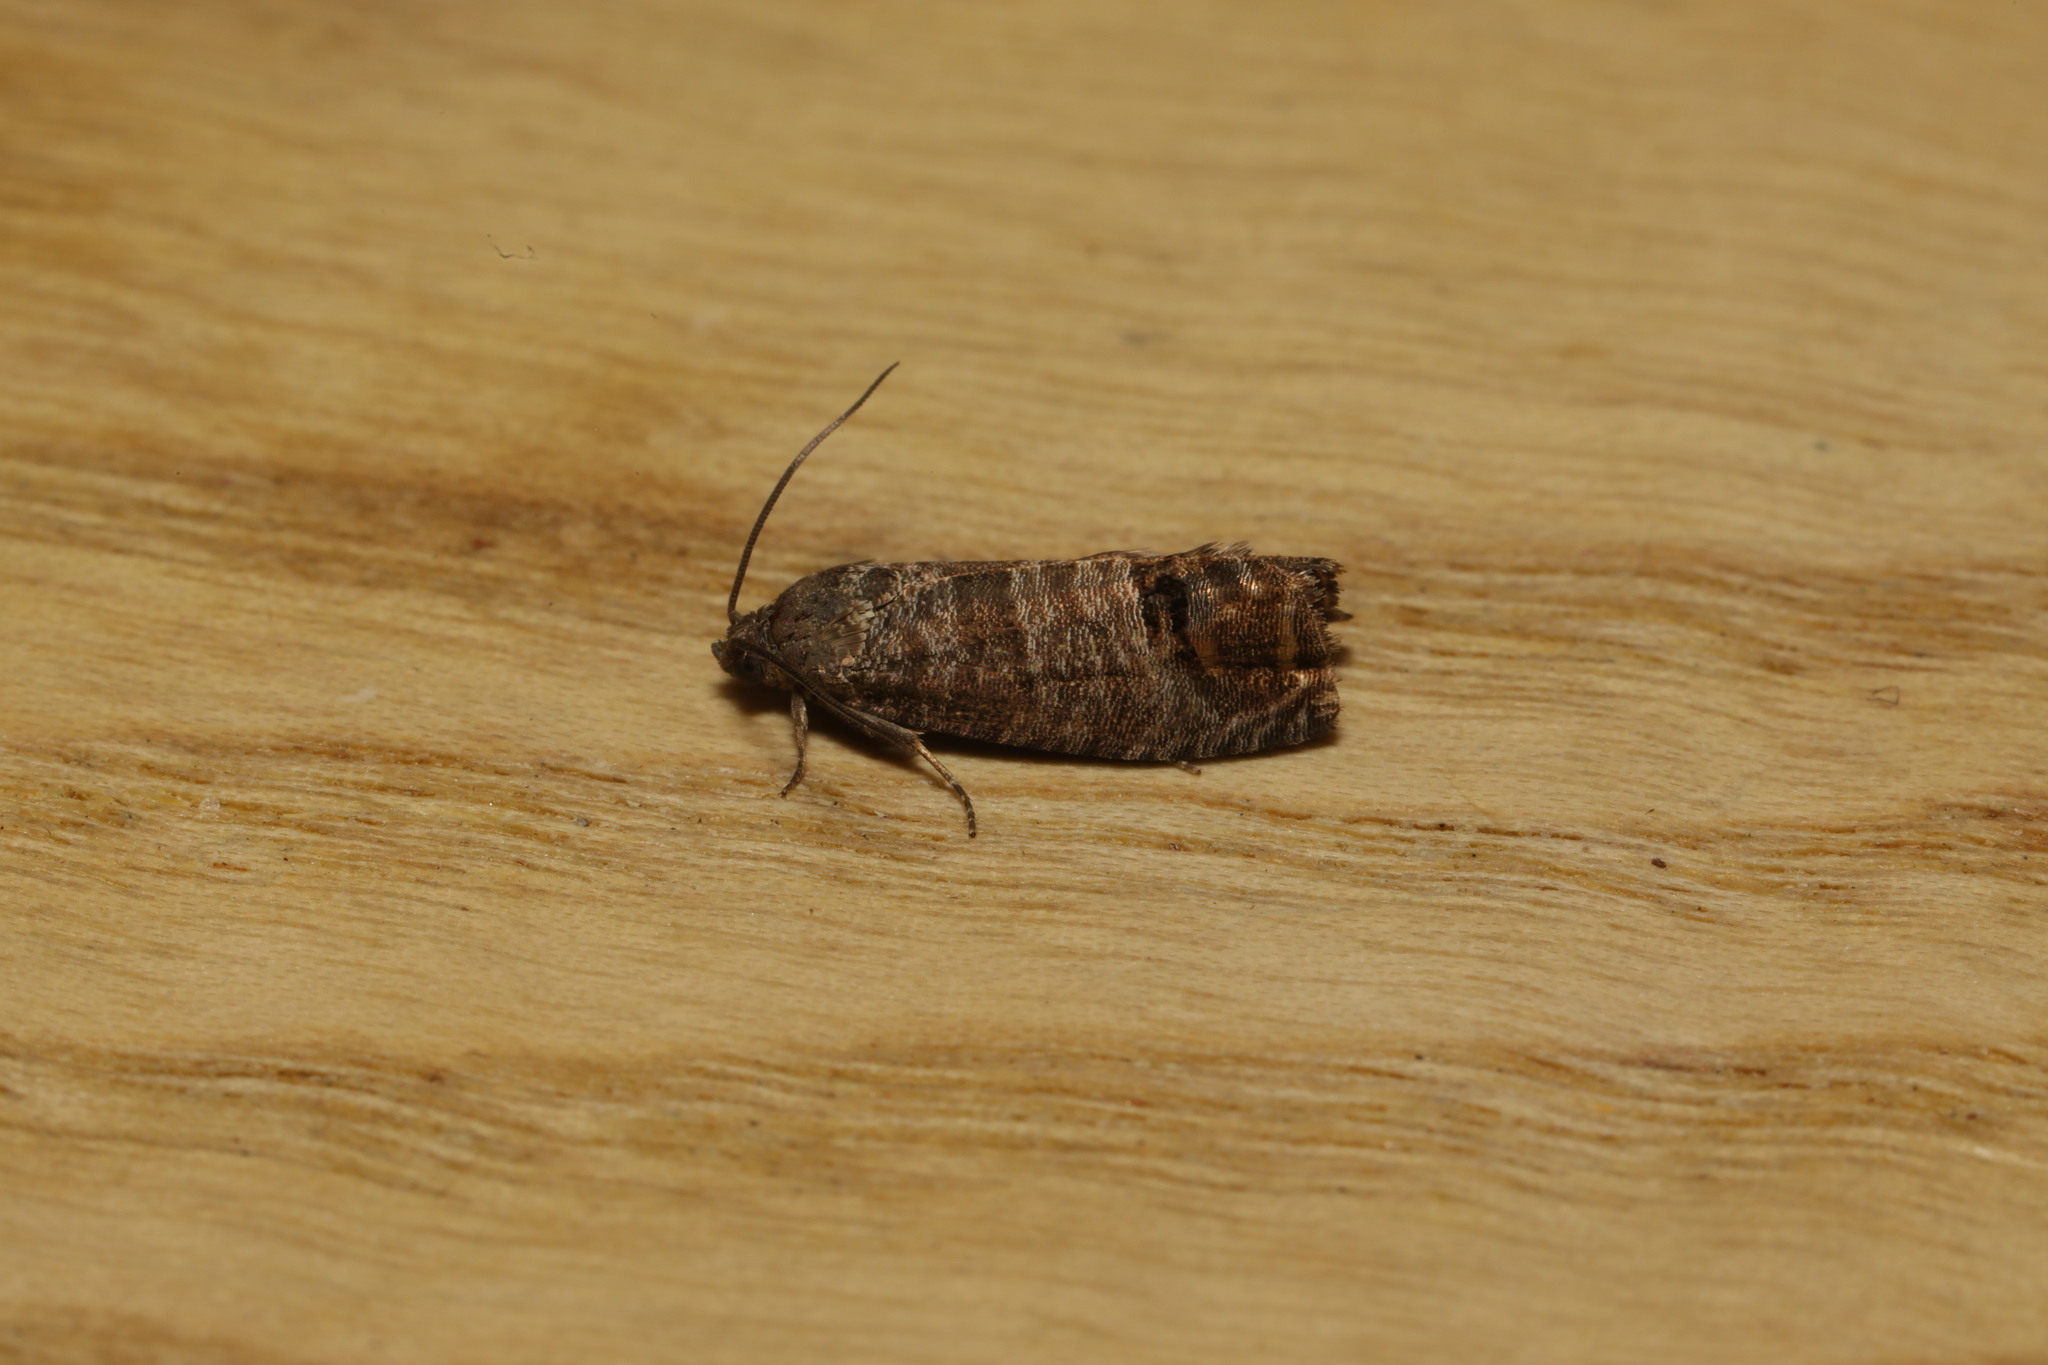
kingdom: Animalia
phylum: Arthropoda
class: Insecta
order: Lepidoptera
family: Tortricidae
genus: Cydia
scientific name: Cydia pomonella
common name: Codling moth
